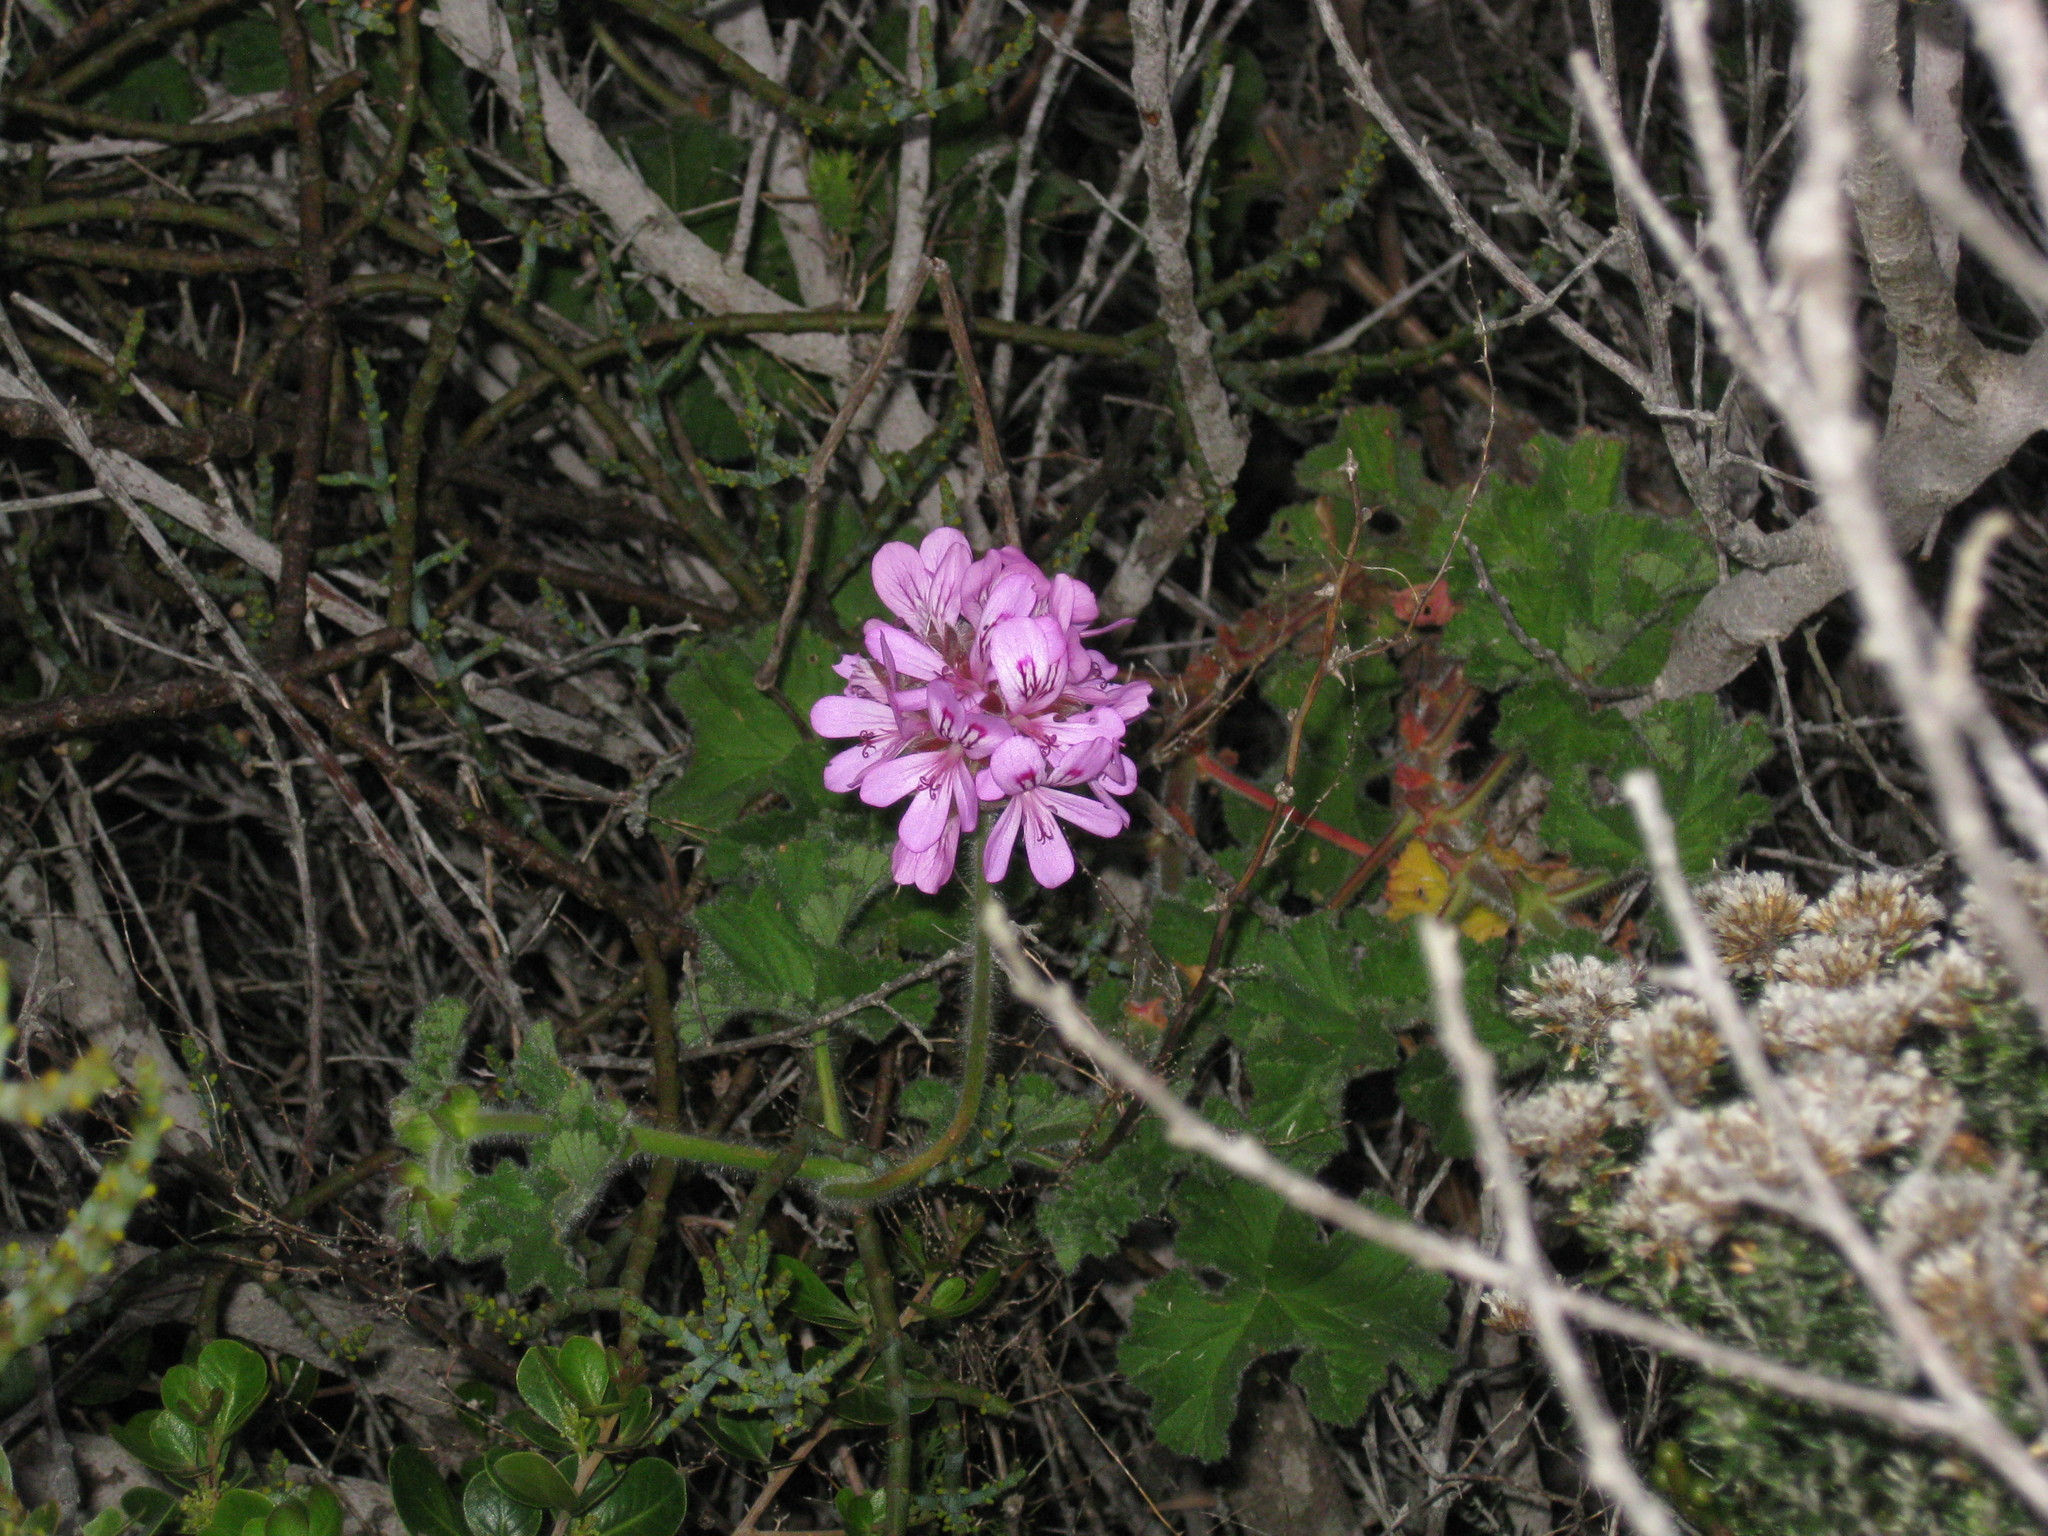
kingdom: Plantae
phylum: Tracheophyta
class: Magnoliopsida
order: Geraniales
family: Geraniaceae
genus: Pelargonium
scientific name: Pelargonium capitatum
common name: Rose scented geranium
